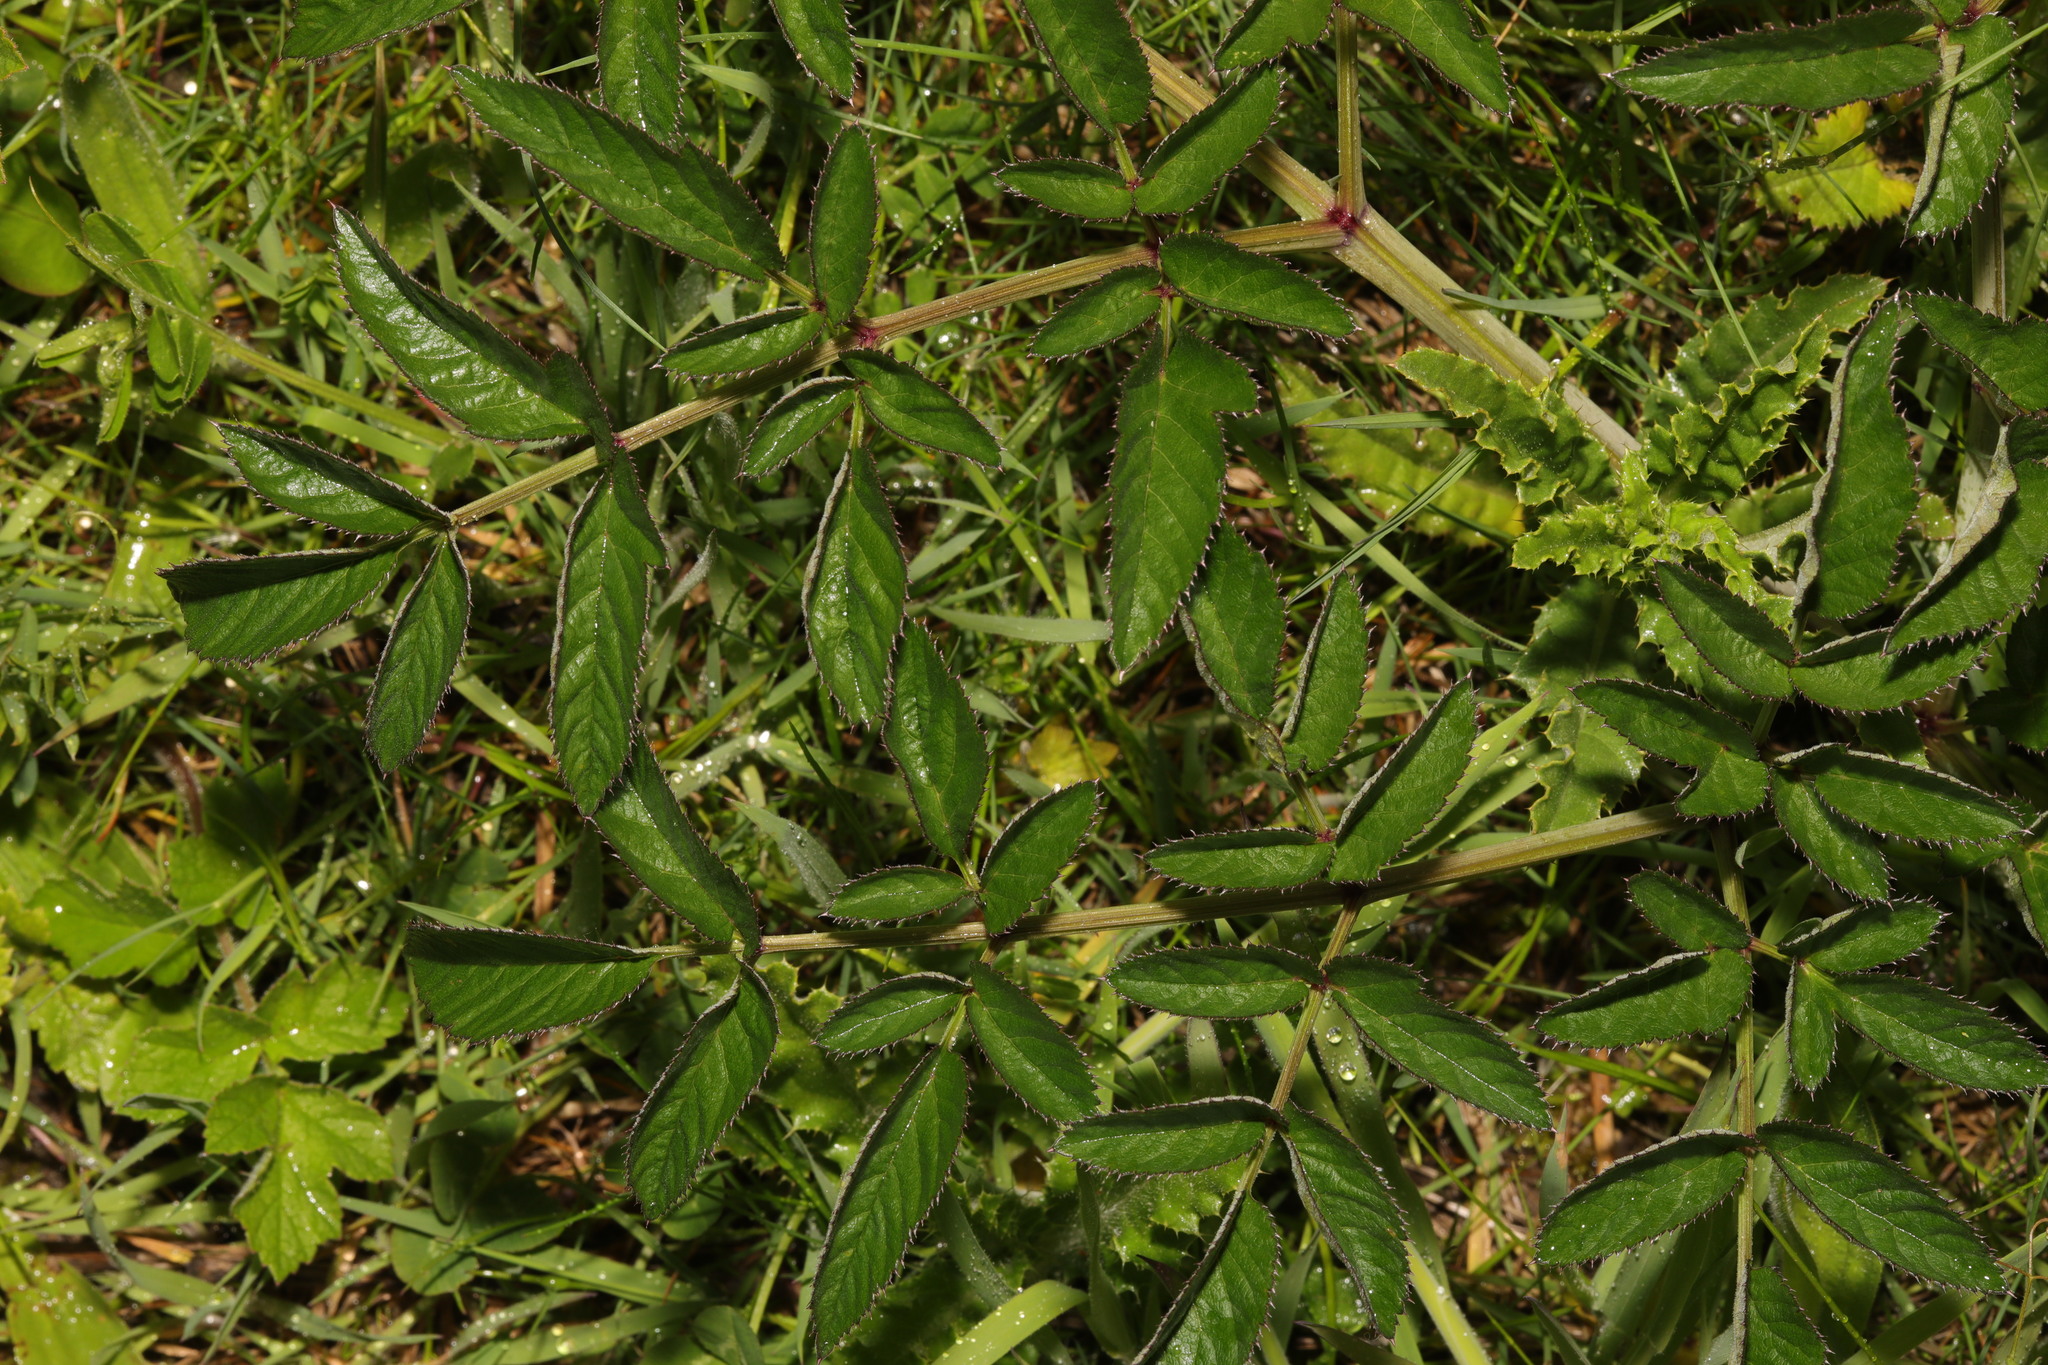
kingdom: Plantae
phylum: Tracheophyta
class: Magnoliopsida
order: Apiales
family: Apiaceae
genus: Angelica
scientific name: Angelica sylvestris
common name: Wild angelica
